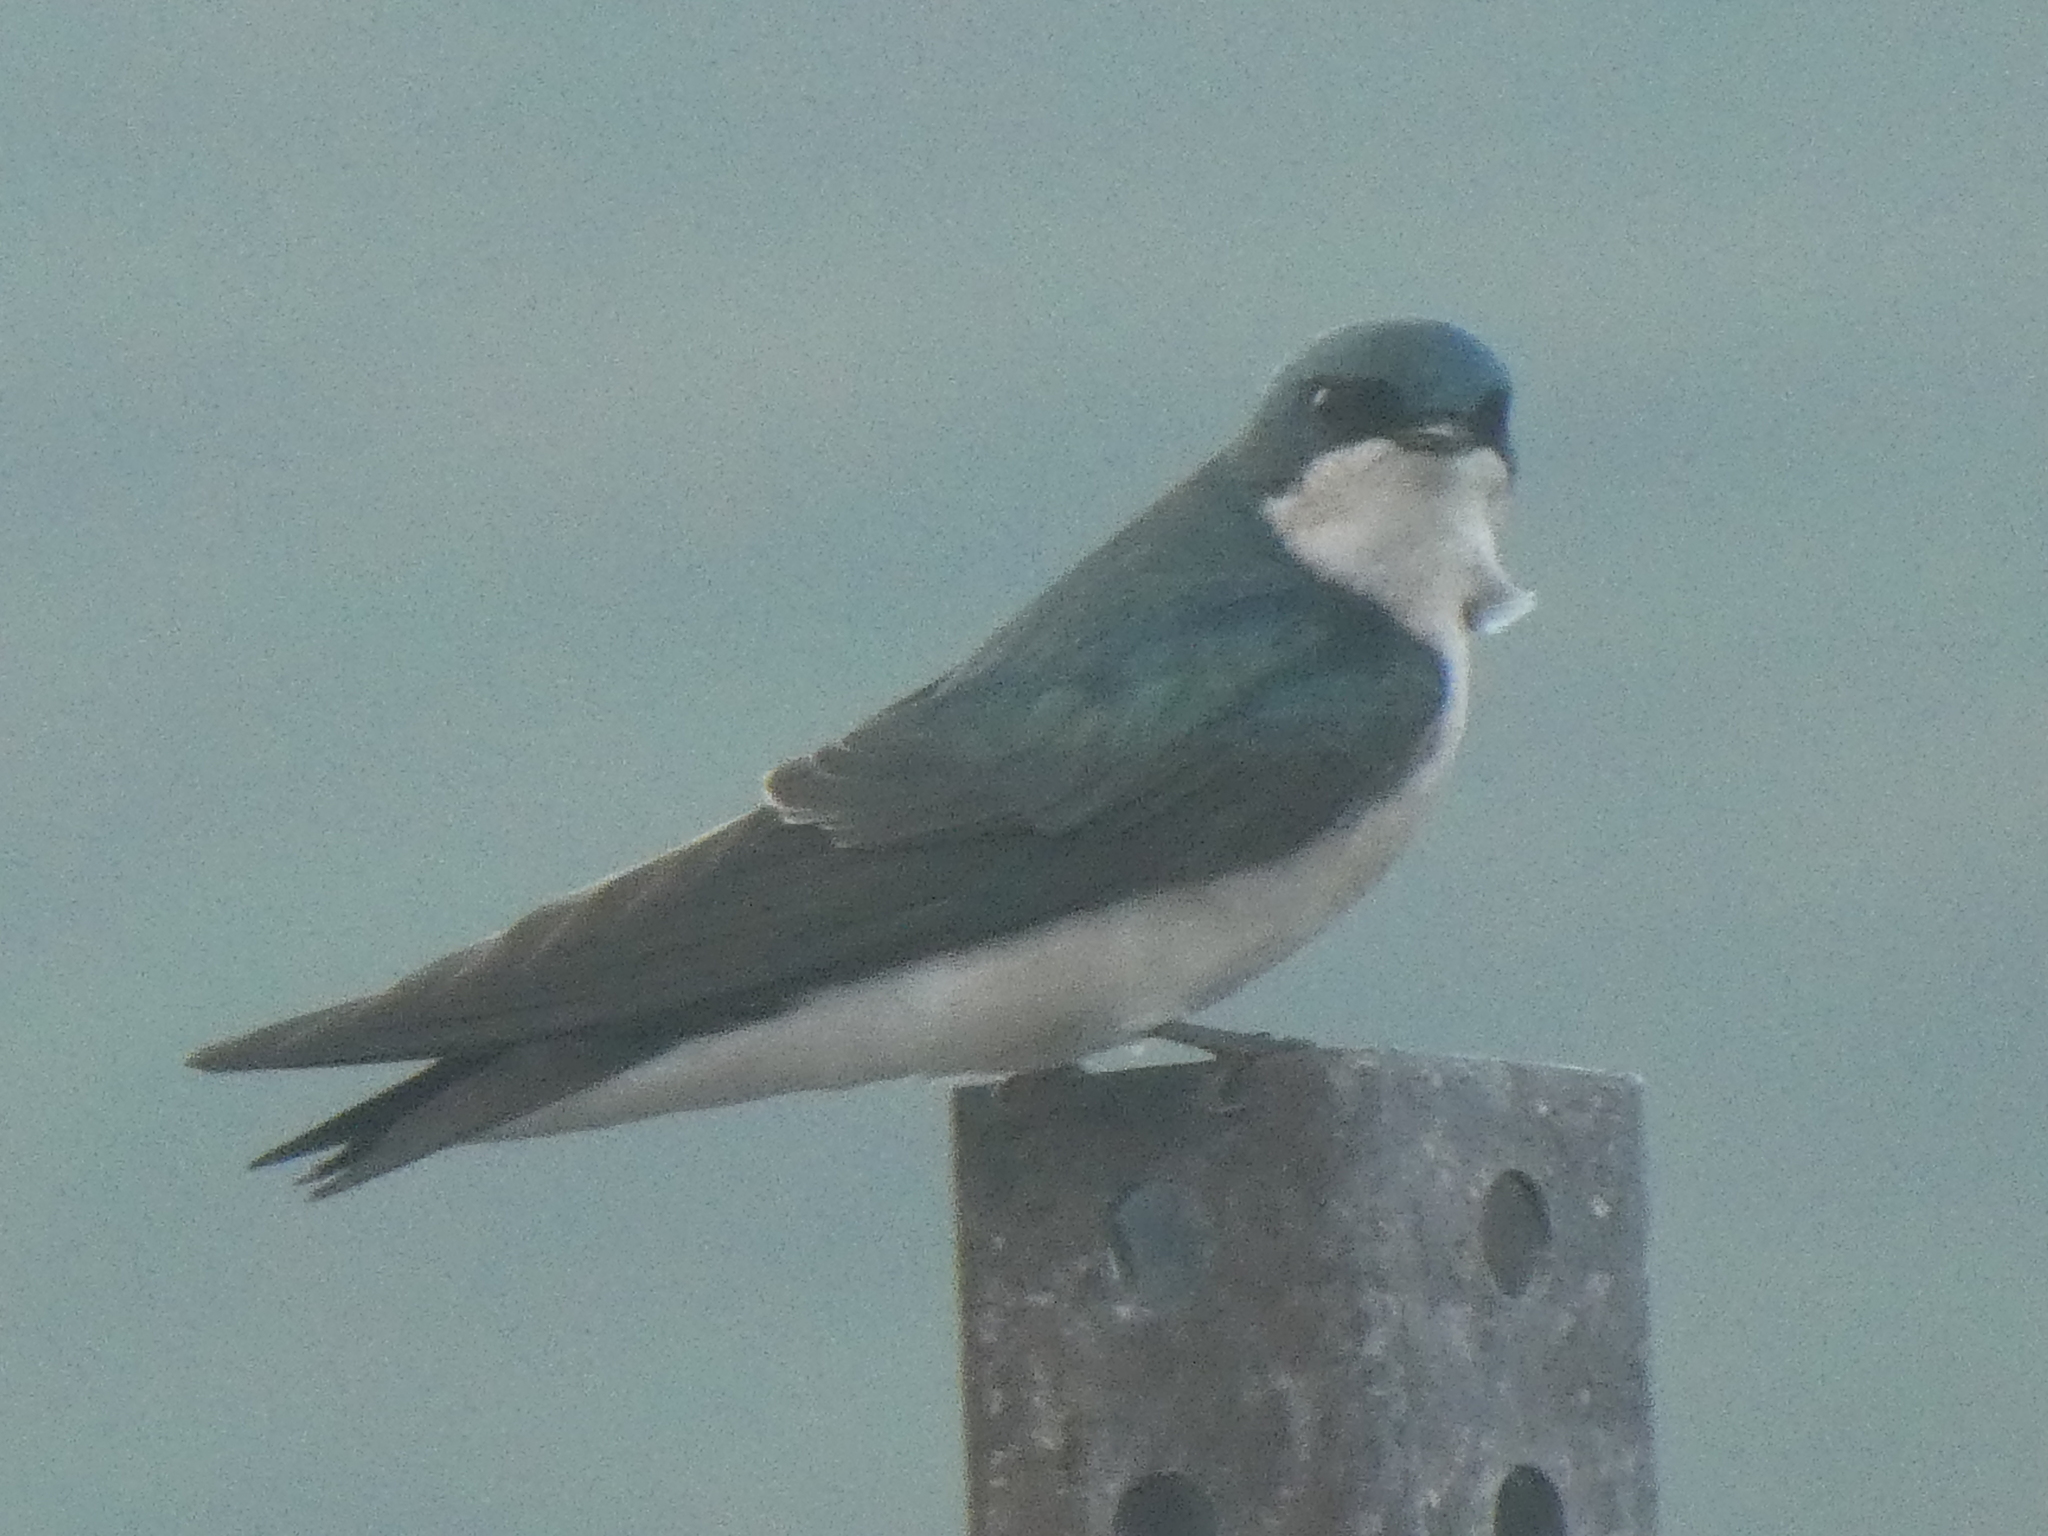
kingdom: Animalia
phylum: Chordata
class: Aves
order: Passeriformes
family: Hirundinidae
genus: Tachycineta
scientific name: Tachycineta bicolor
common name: Tree swallow
